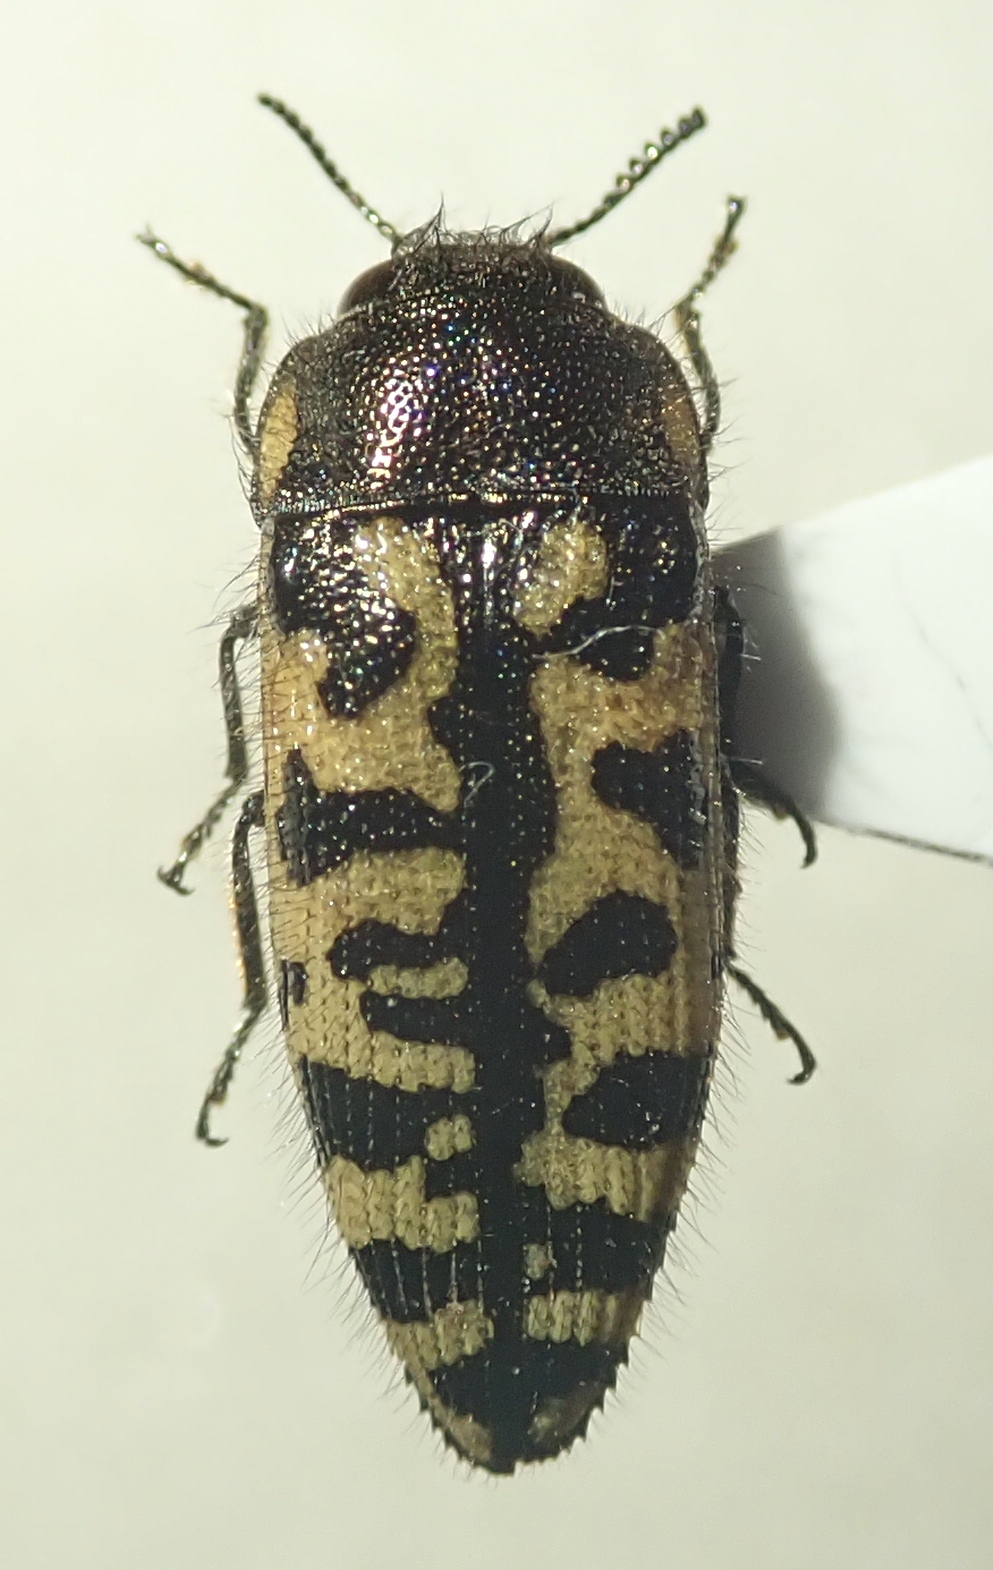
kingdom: Animalia
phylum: Arthropoda
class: Insecta
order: Coleoptera
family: Buprestidae
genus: Acmaeodera
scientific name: Acmaeodera decipiens
